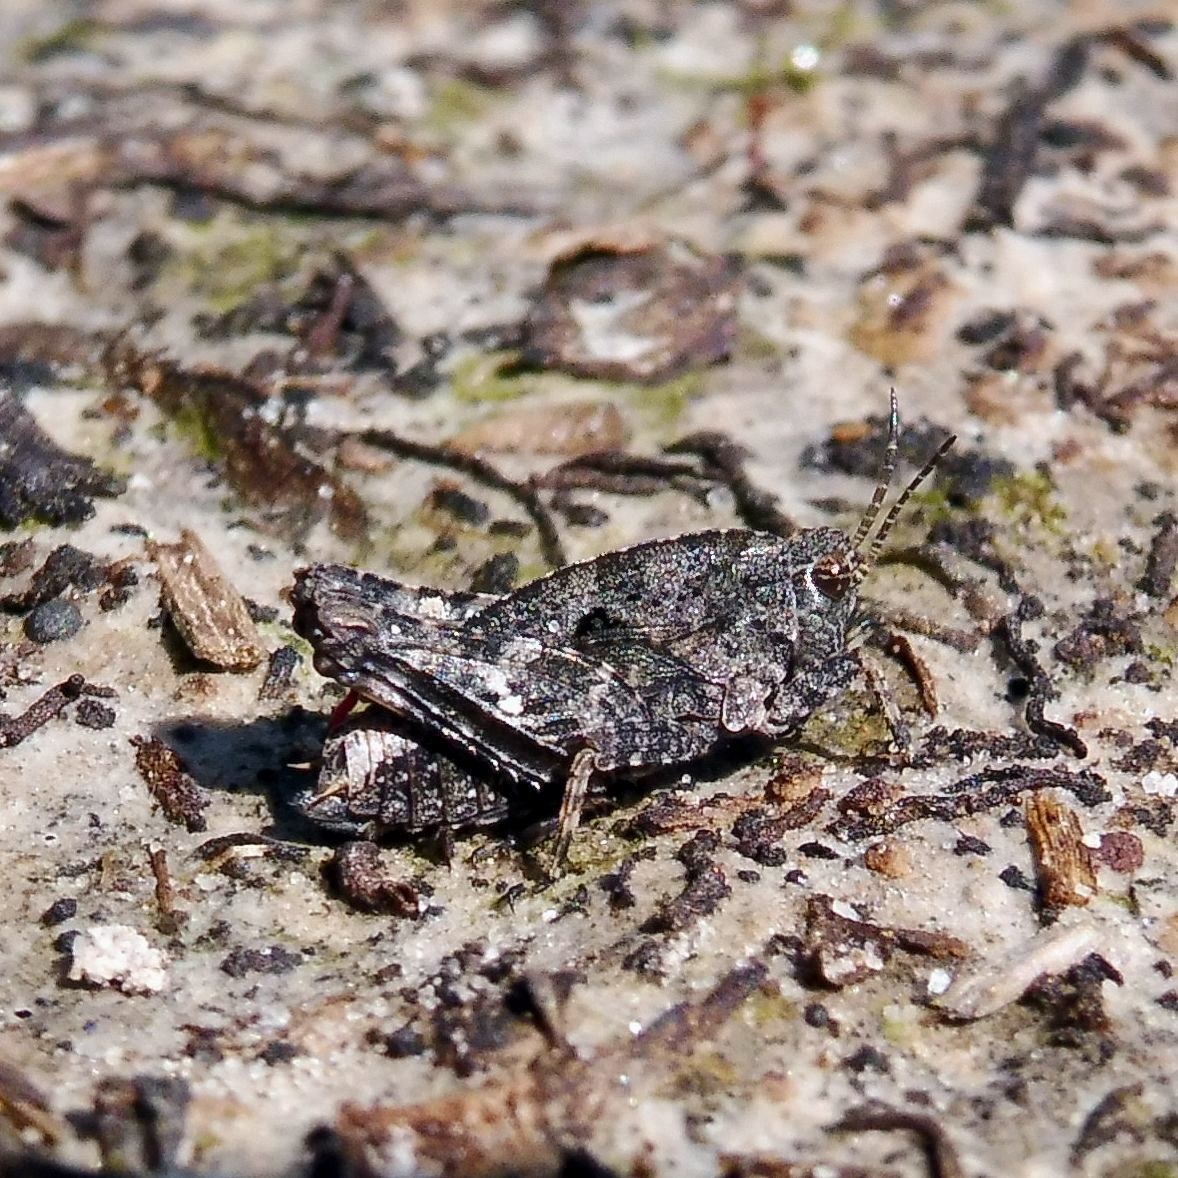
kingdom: Animalia
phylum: Arthropoda
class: Insecta
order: Orthoptera
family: Tetrigidae
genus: Tetrix
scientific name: Tetrix undulata
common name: Common groundhopper
